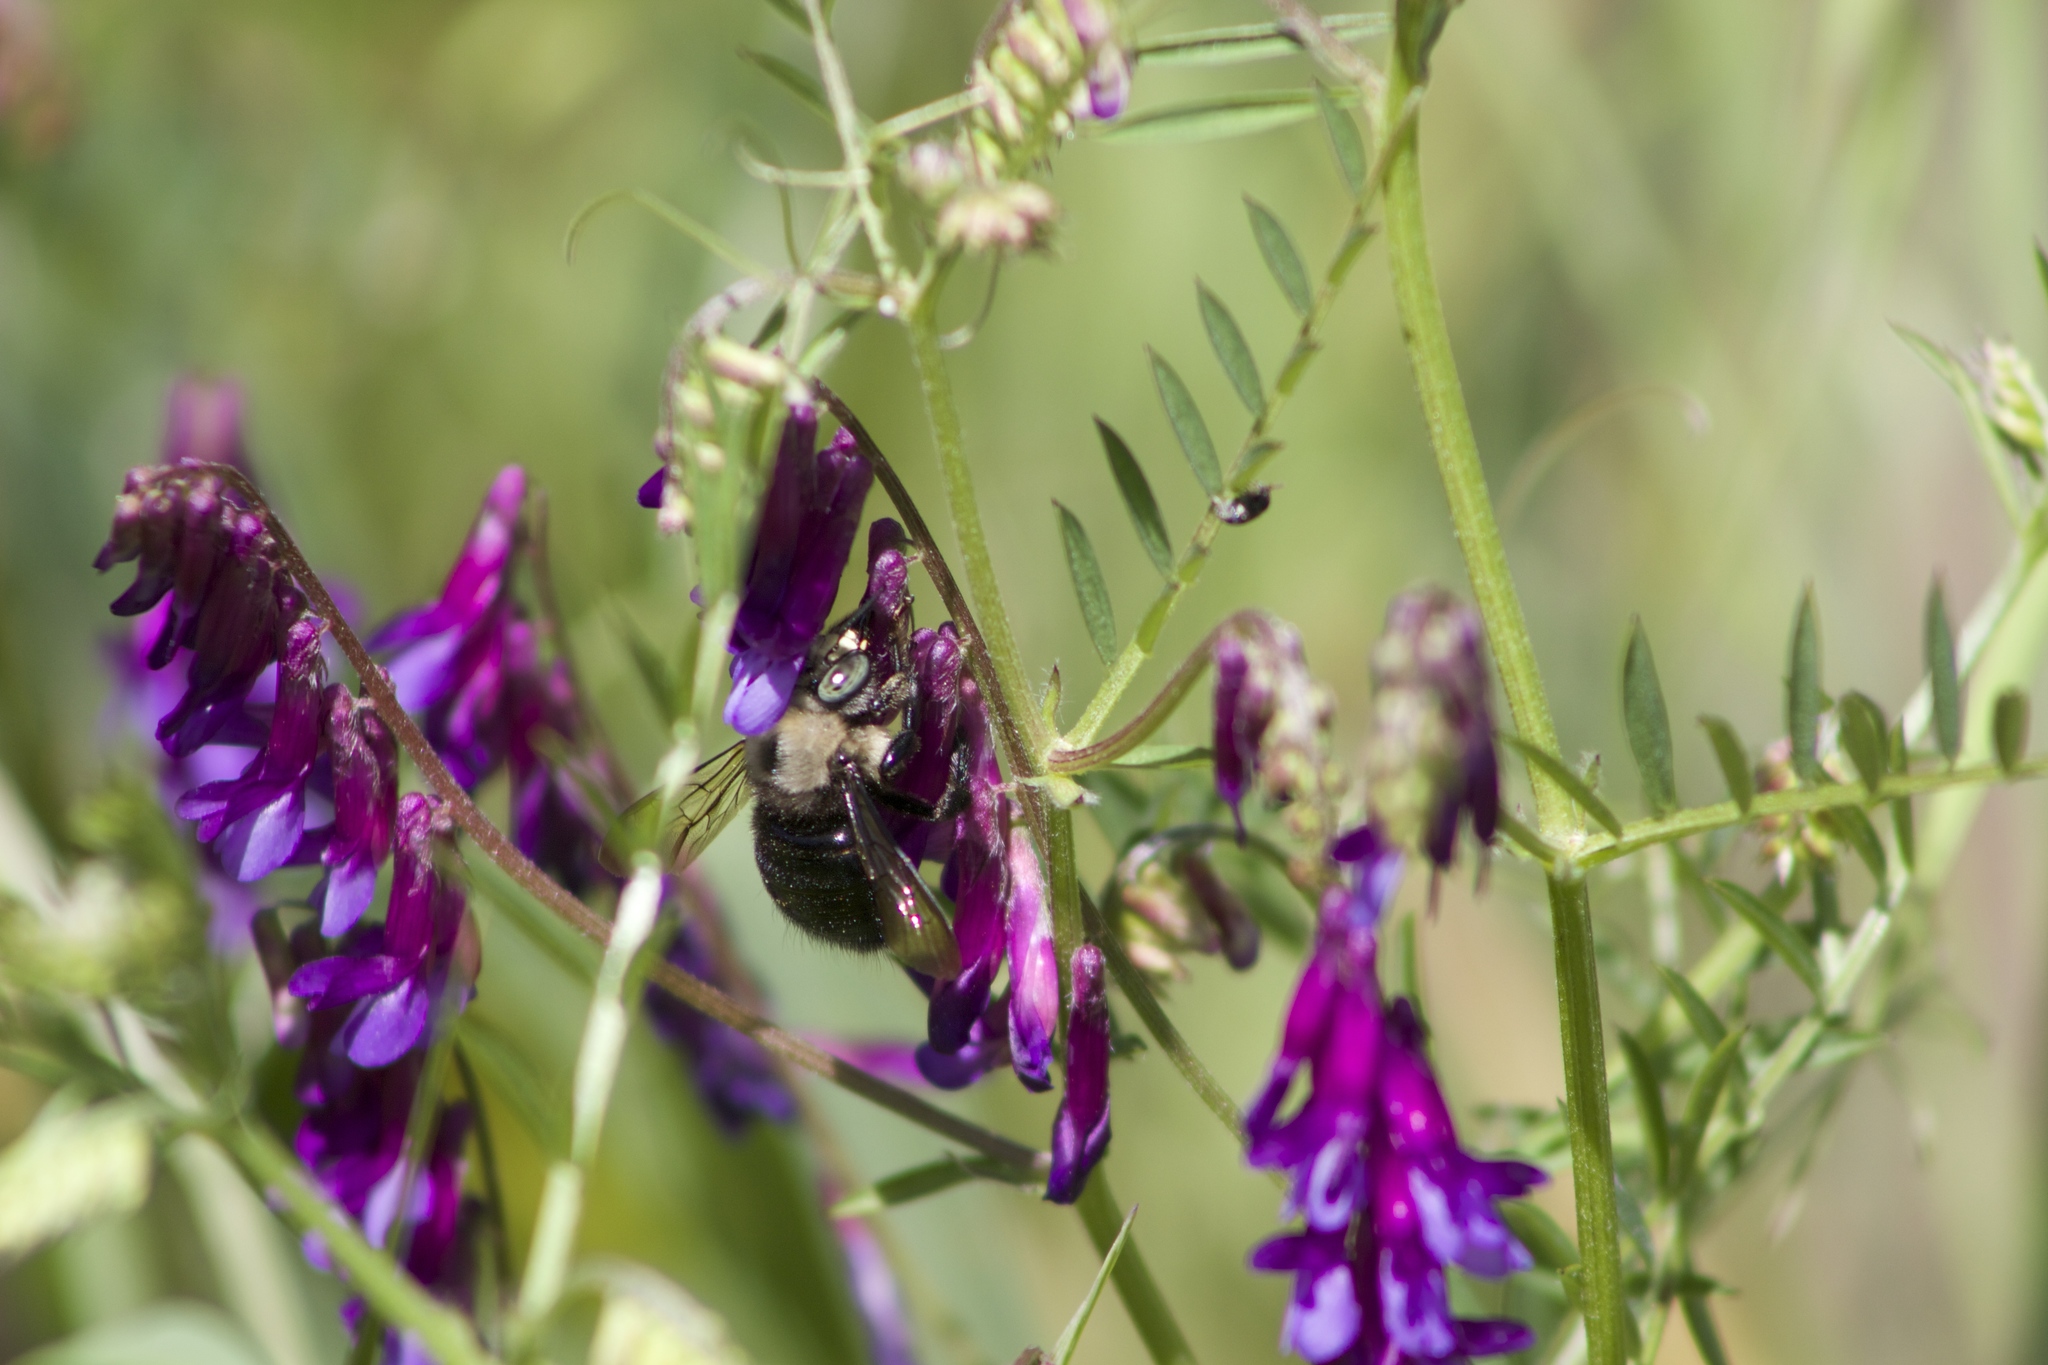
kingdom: Plantae
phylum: Tracheophyta
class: Magnoliopsida
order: Fabales
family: Fabaceae
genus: Vicia
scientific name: Vicia villosa
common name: Fodder vetch
